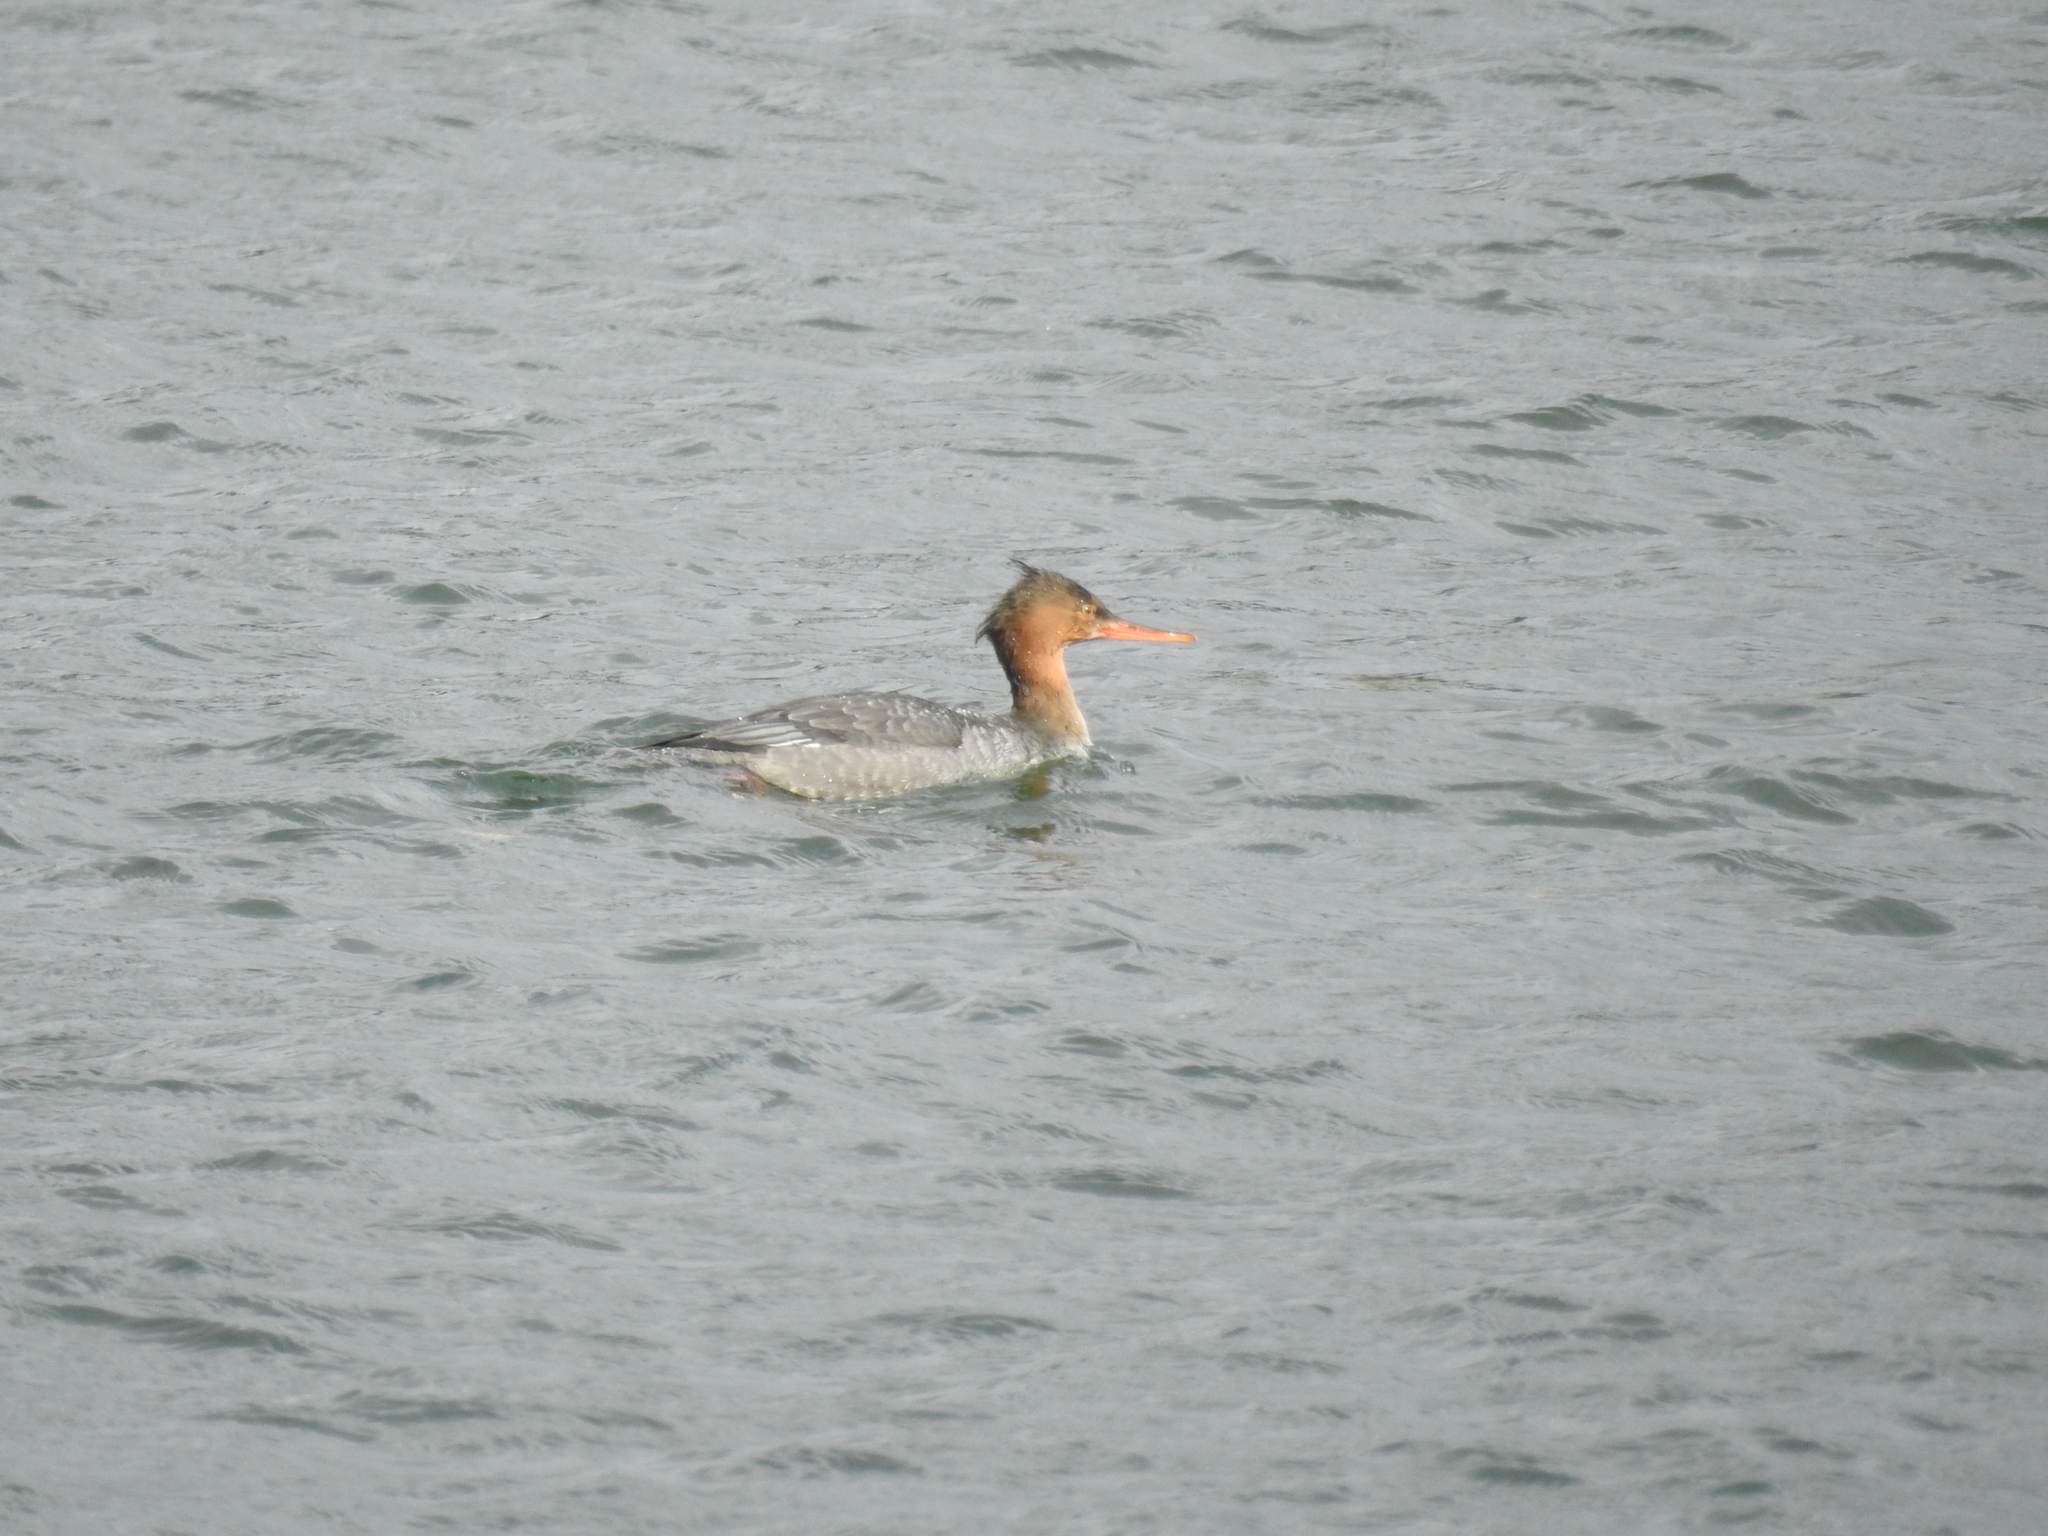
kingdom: Animalia
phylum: Chordata
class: Aves
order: Anseriformes
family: Anatidae
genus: Mergus
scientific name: Mergus serrator
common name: Red-breasted merganser
